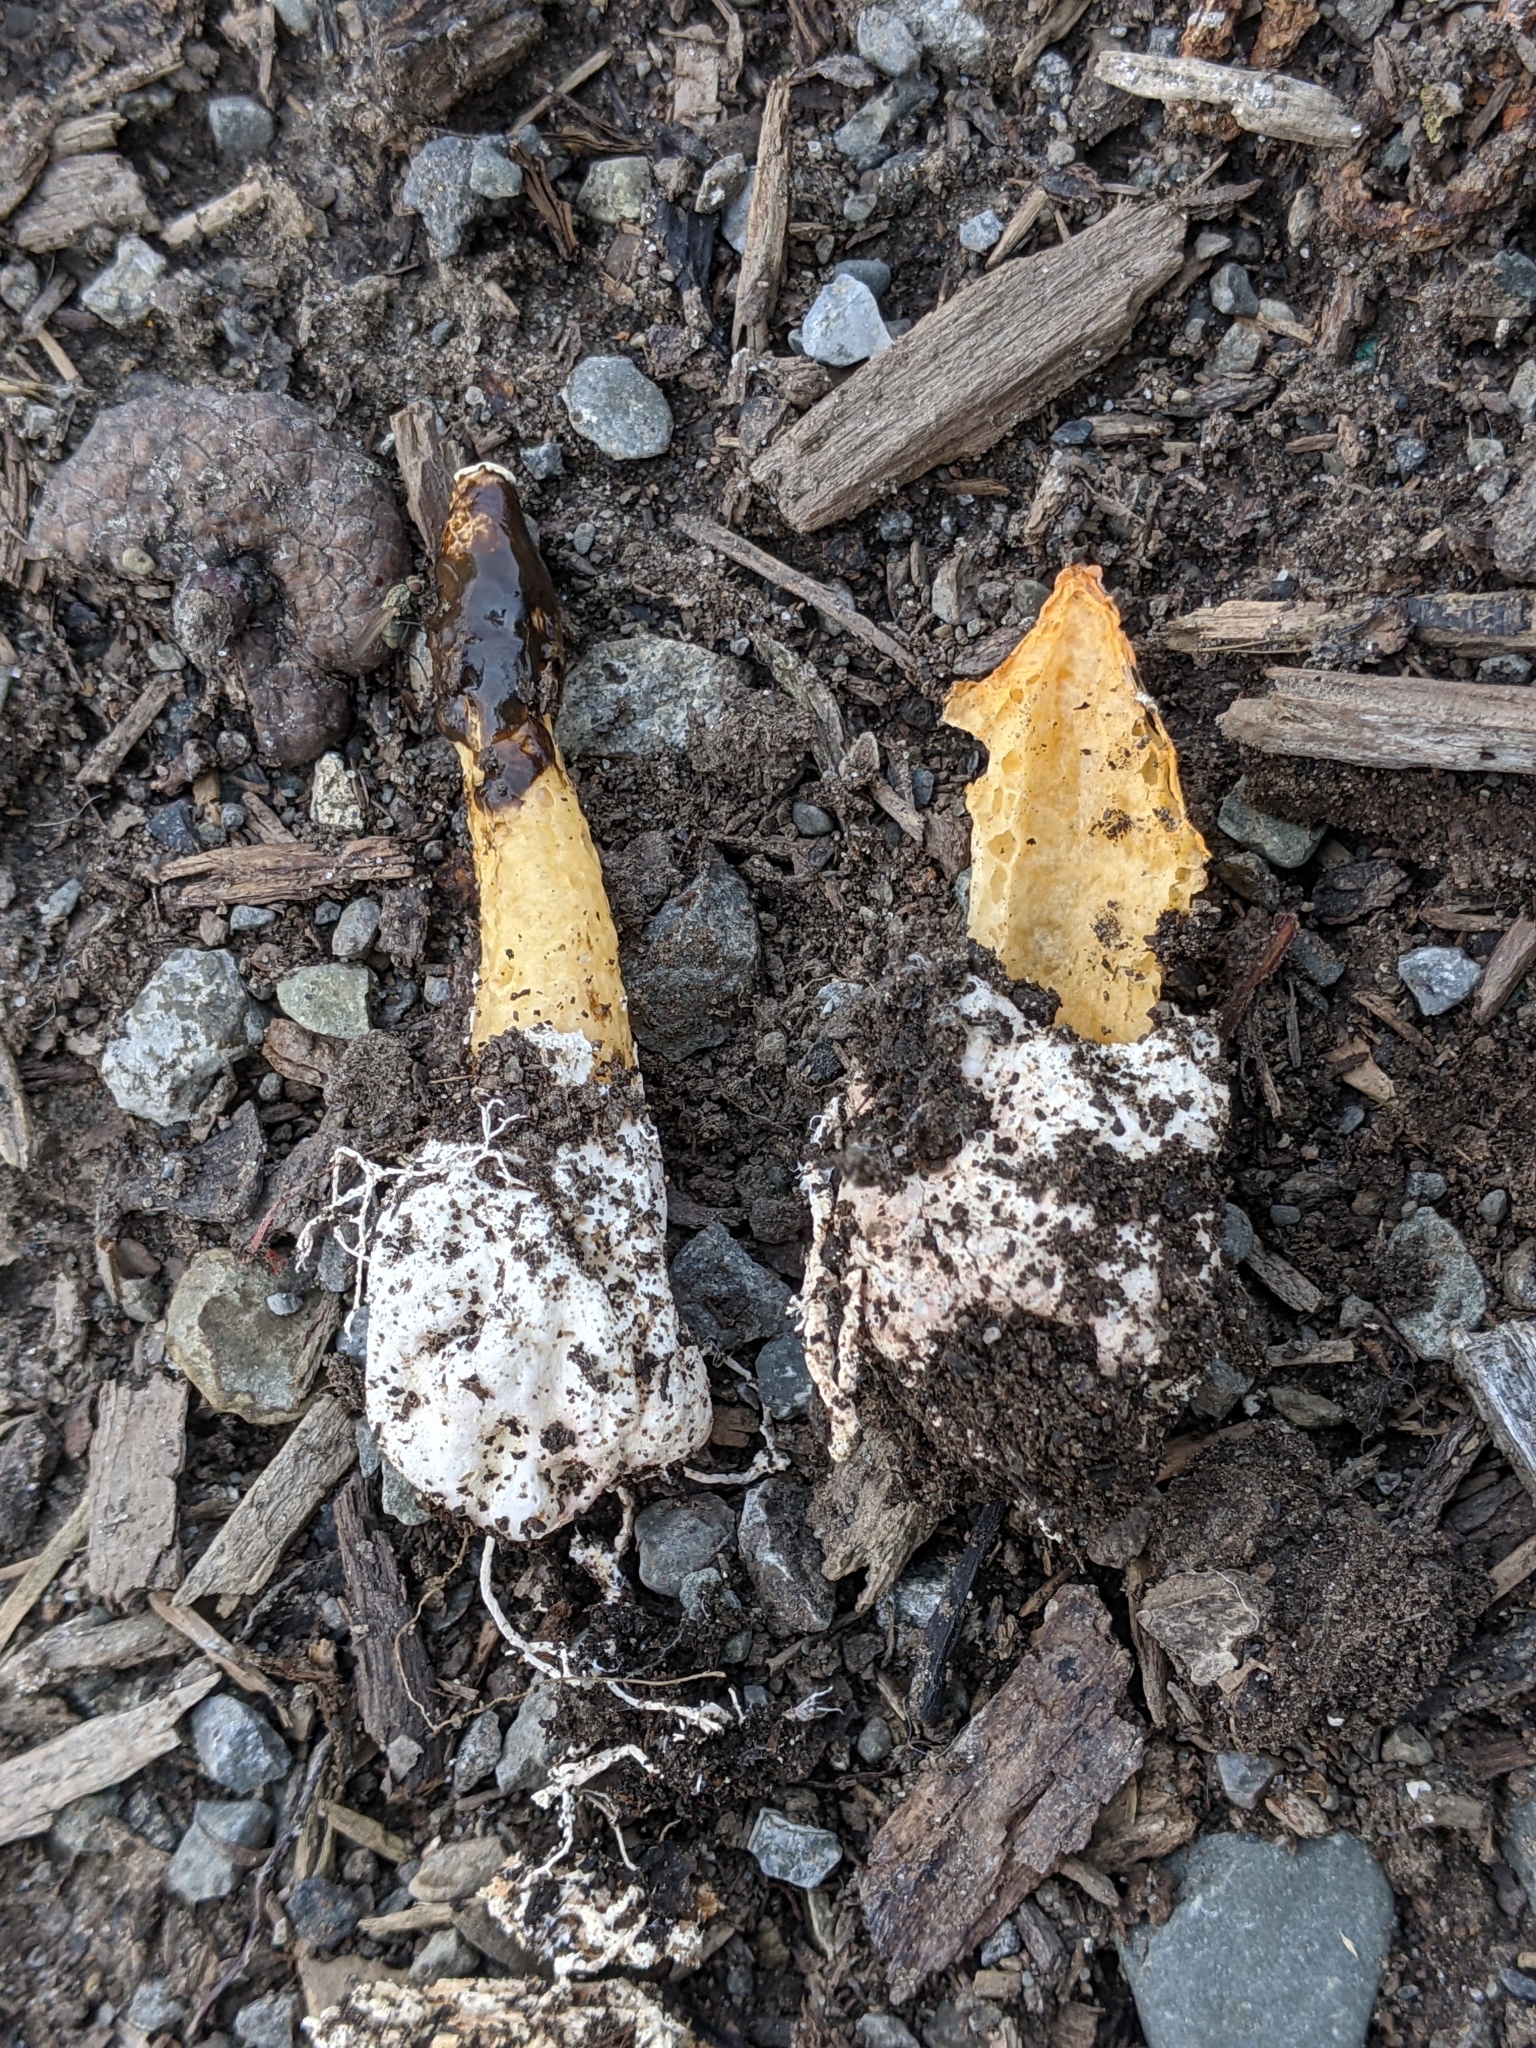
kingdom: Fungi
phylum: Basidiomycota
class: Agaricomycetes
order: Phallales
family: Phallaceae
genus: Phallus
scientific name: Phallus rugulosus
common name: Wrinkly stinkhorn
